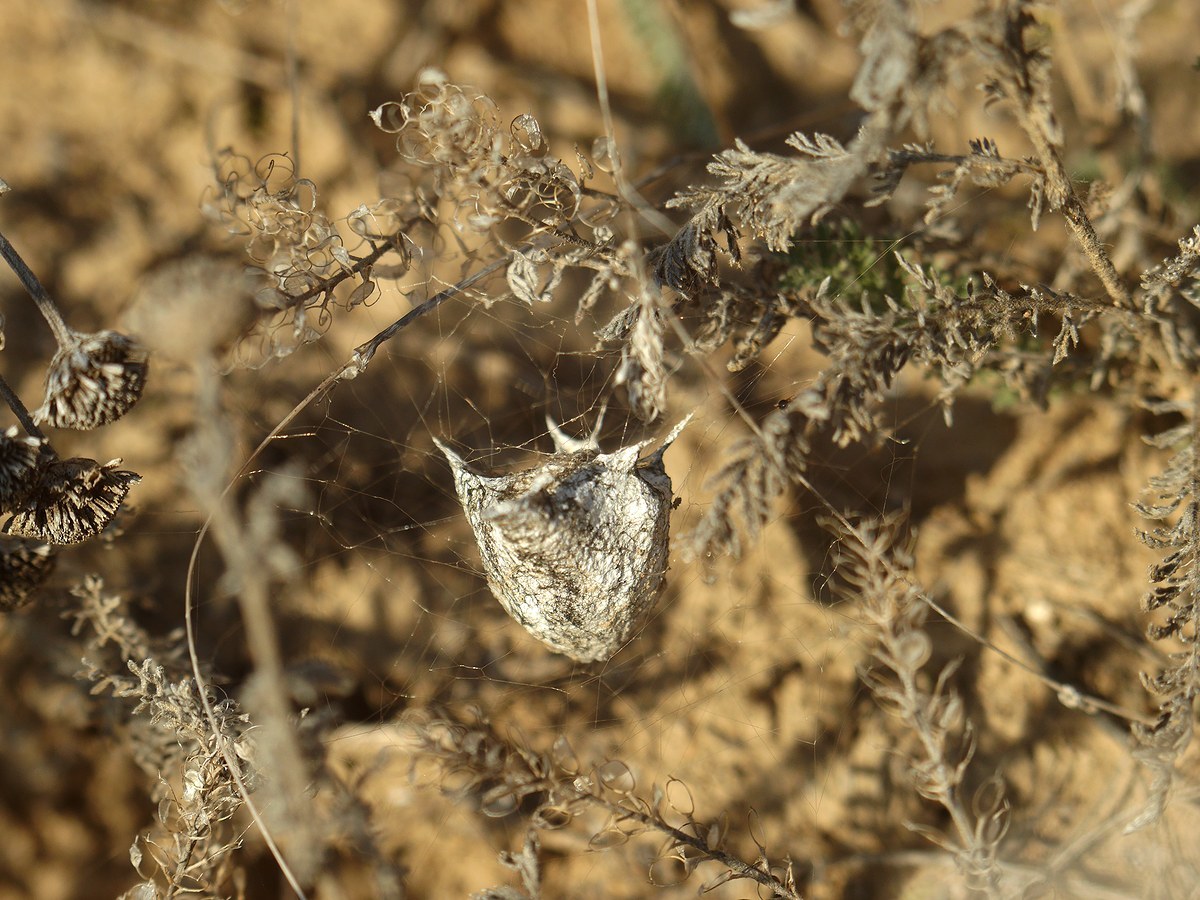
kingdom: Animalia
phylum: Arthropoda
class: Arachnida
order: Araneae
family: Araneidae
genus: Argiope
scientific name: Argiope lobata
